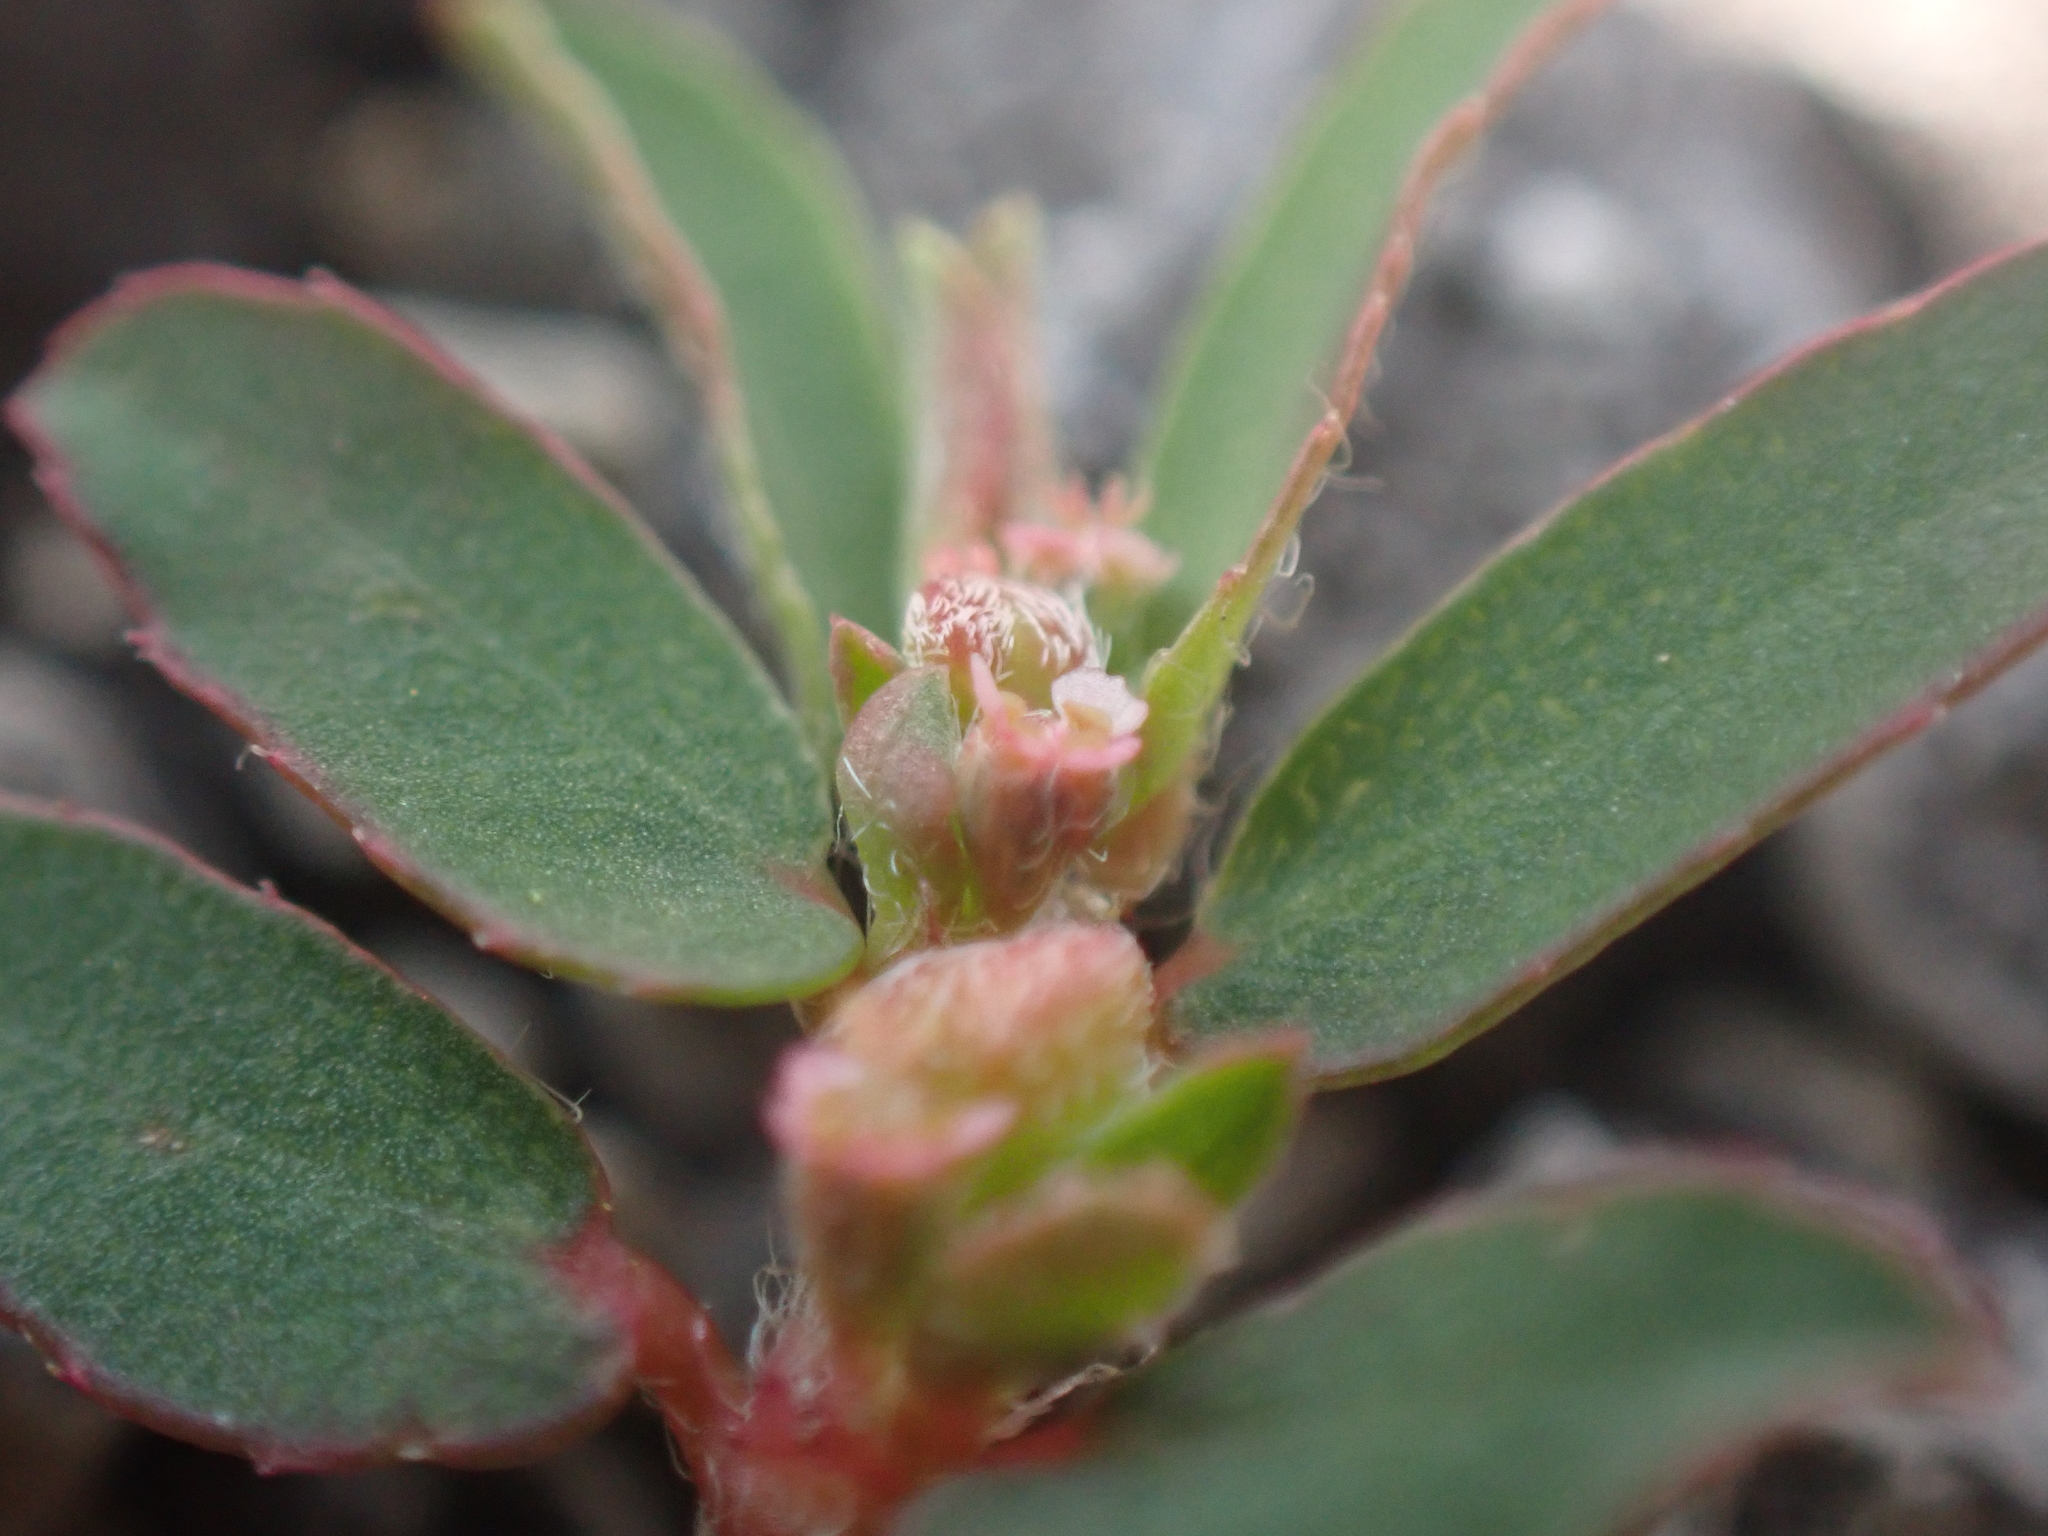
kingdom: Plantae
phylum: Tracheophyta
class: Magnoliopsida
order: Malpighiales
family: Euphorbiaceae
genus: Euphorbia
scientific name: Euphorbia maculata
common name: Spotted spurge
